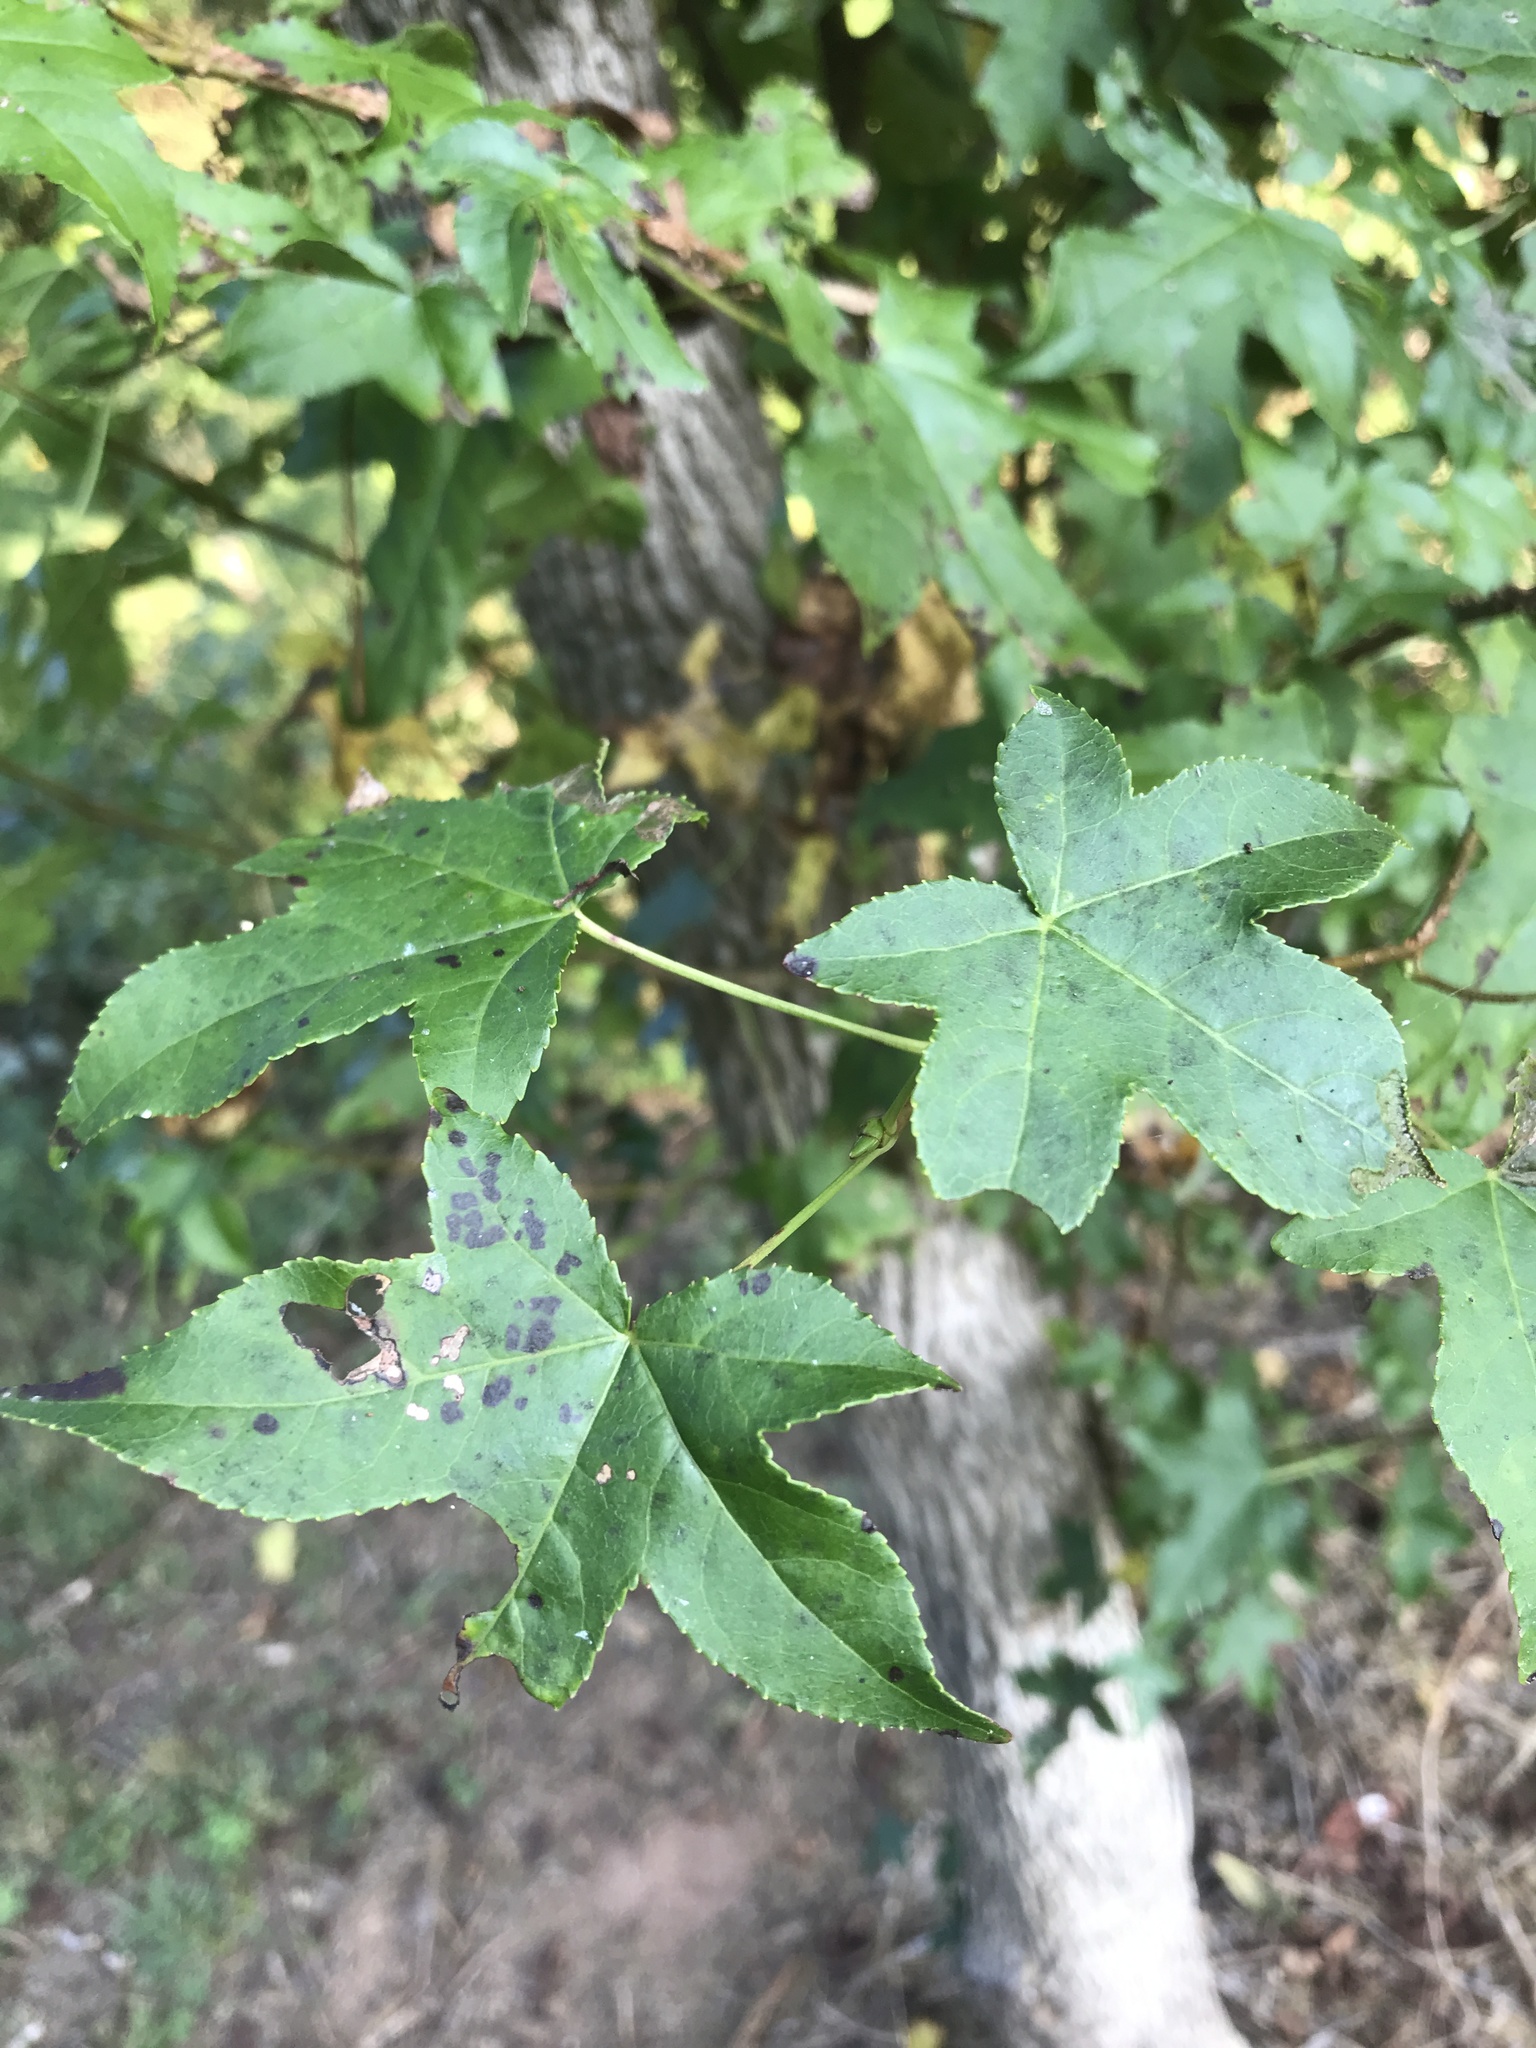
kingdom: Plantae
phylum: Tracheophyta
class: Magnoliopsida
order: Saxifragales
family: Altingiaceae
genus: Liquidambar
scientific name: Liquidambar styraciflua
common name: Sweet gum
